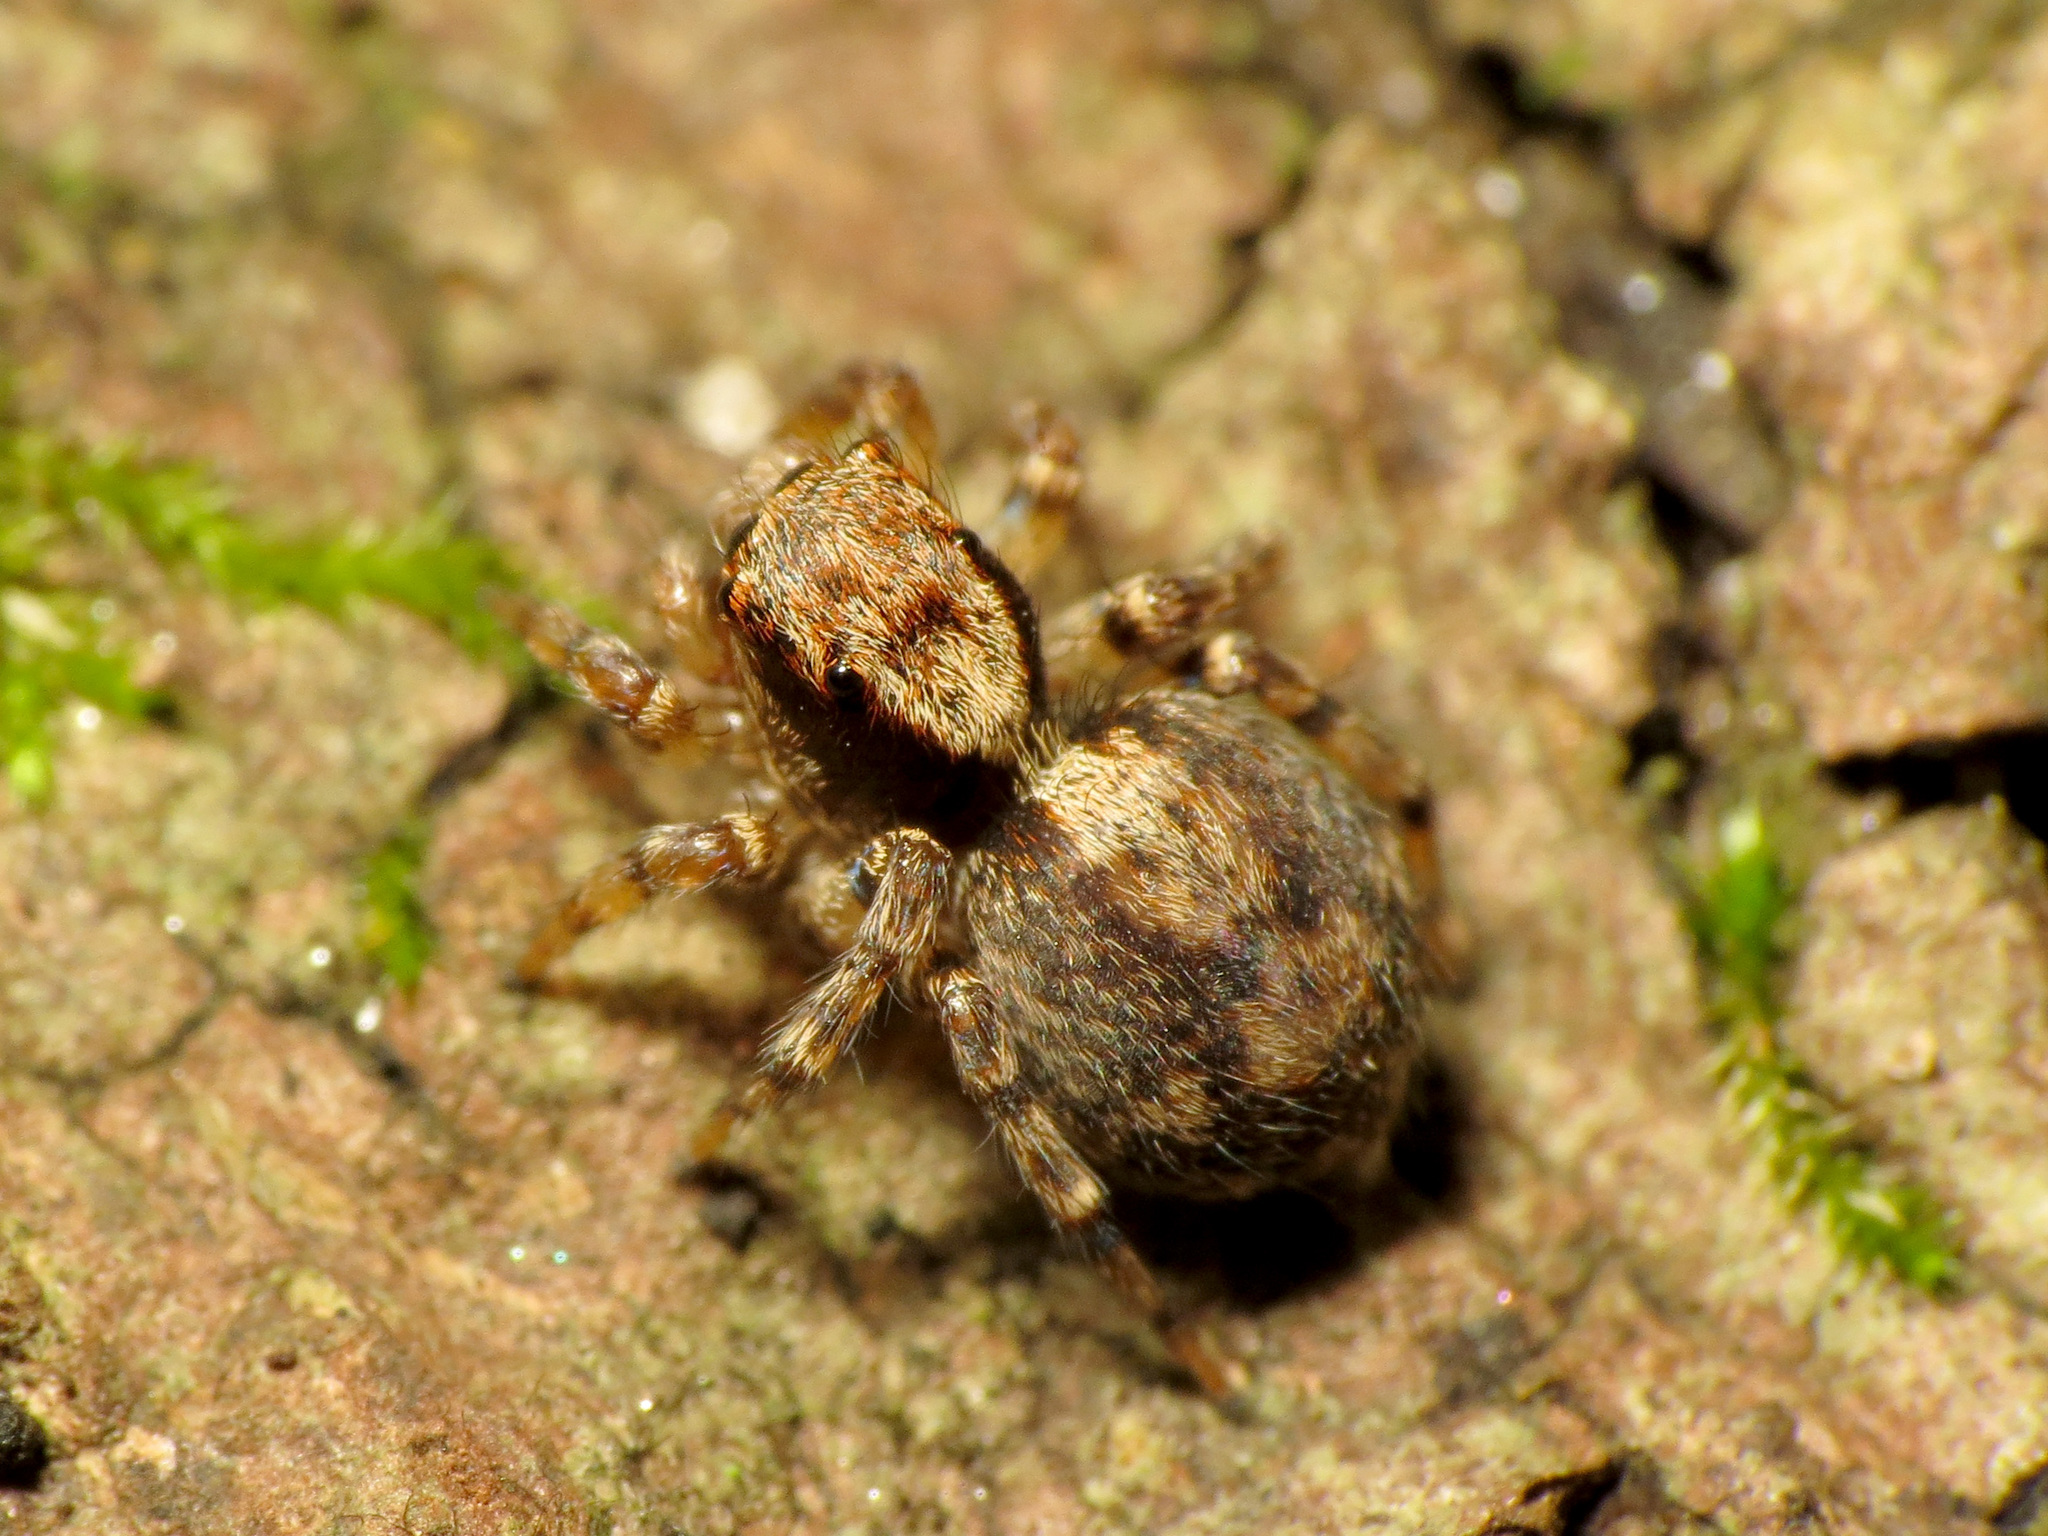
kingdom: Animalia
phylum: Arthropoda
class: Arachnida
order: Araneae
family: Salticidae
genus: Naphrys
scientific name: Naphrys pulex
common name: Flea jumping spider
